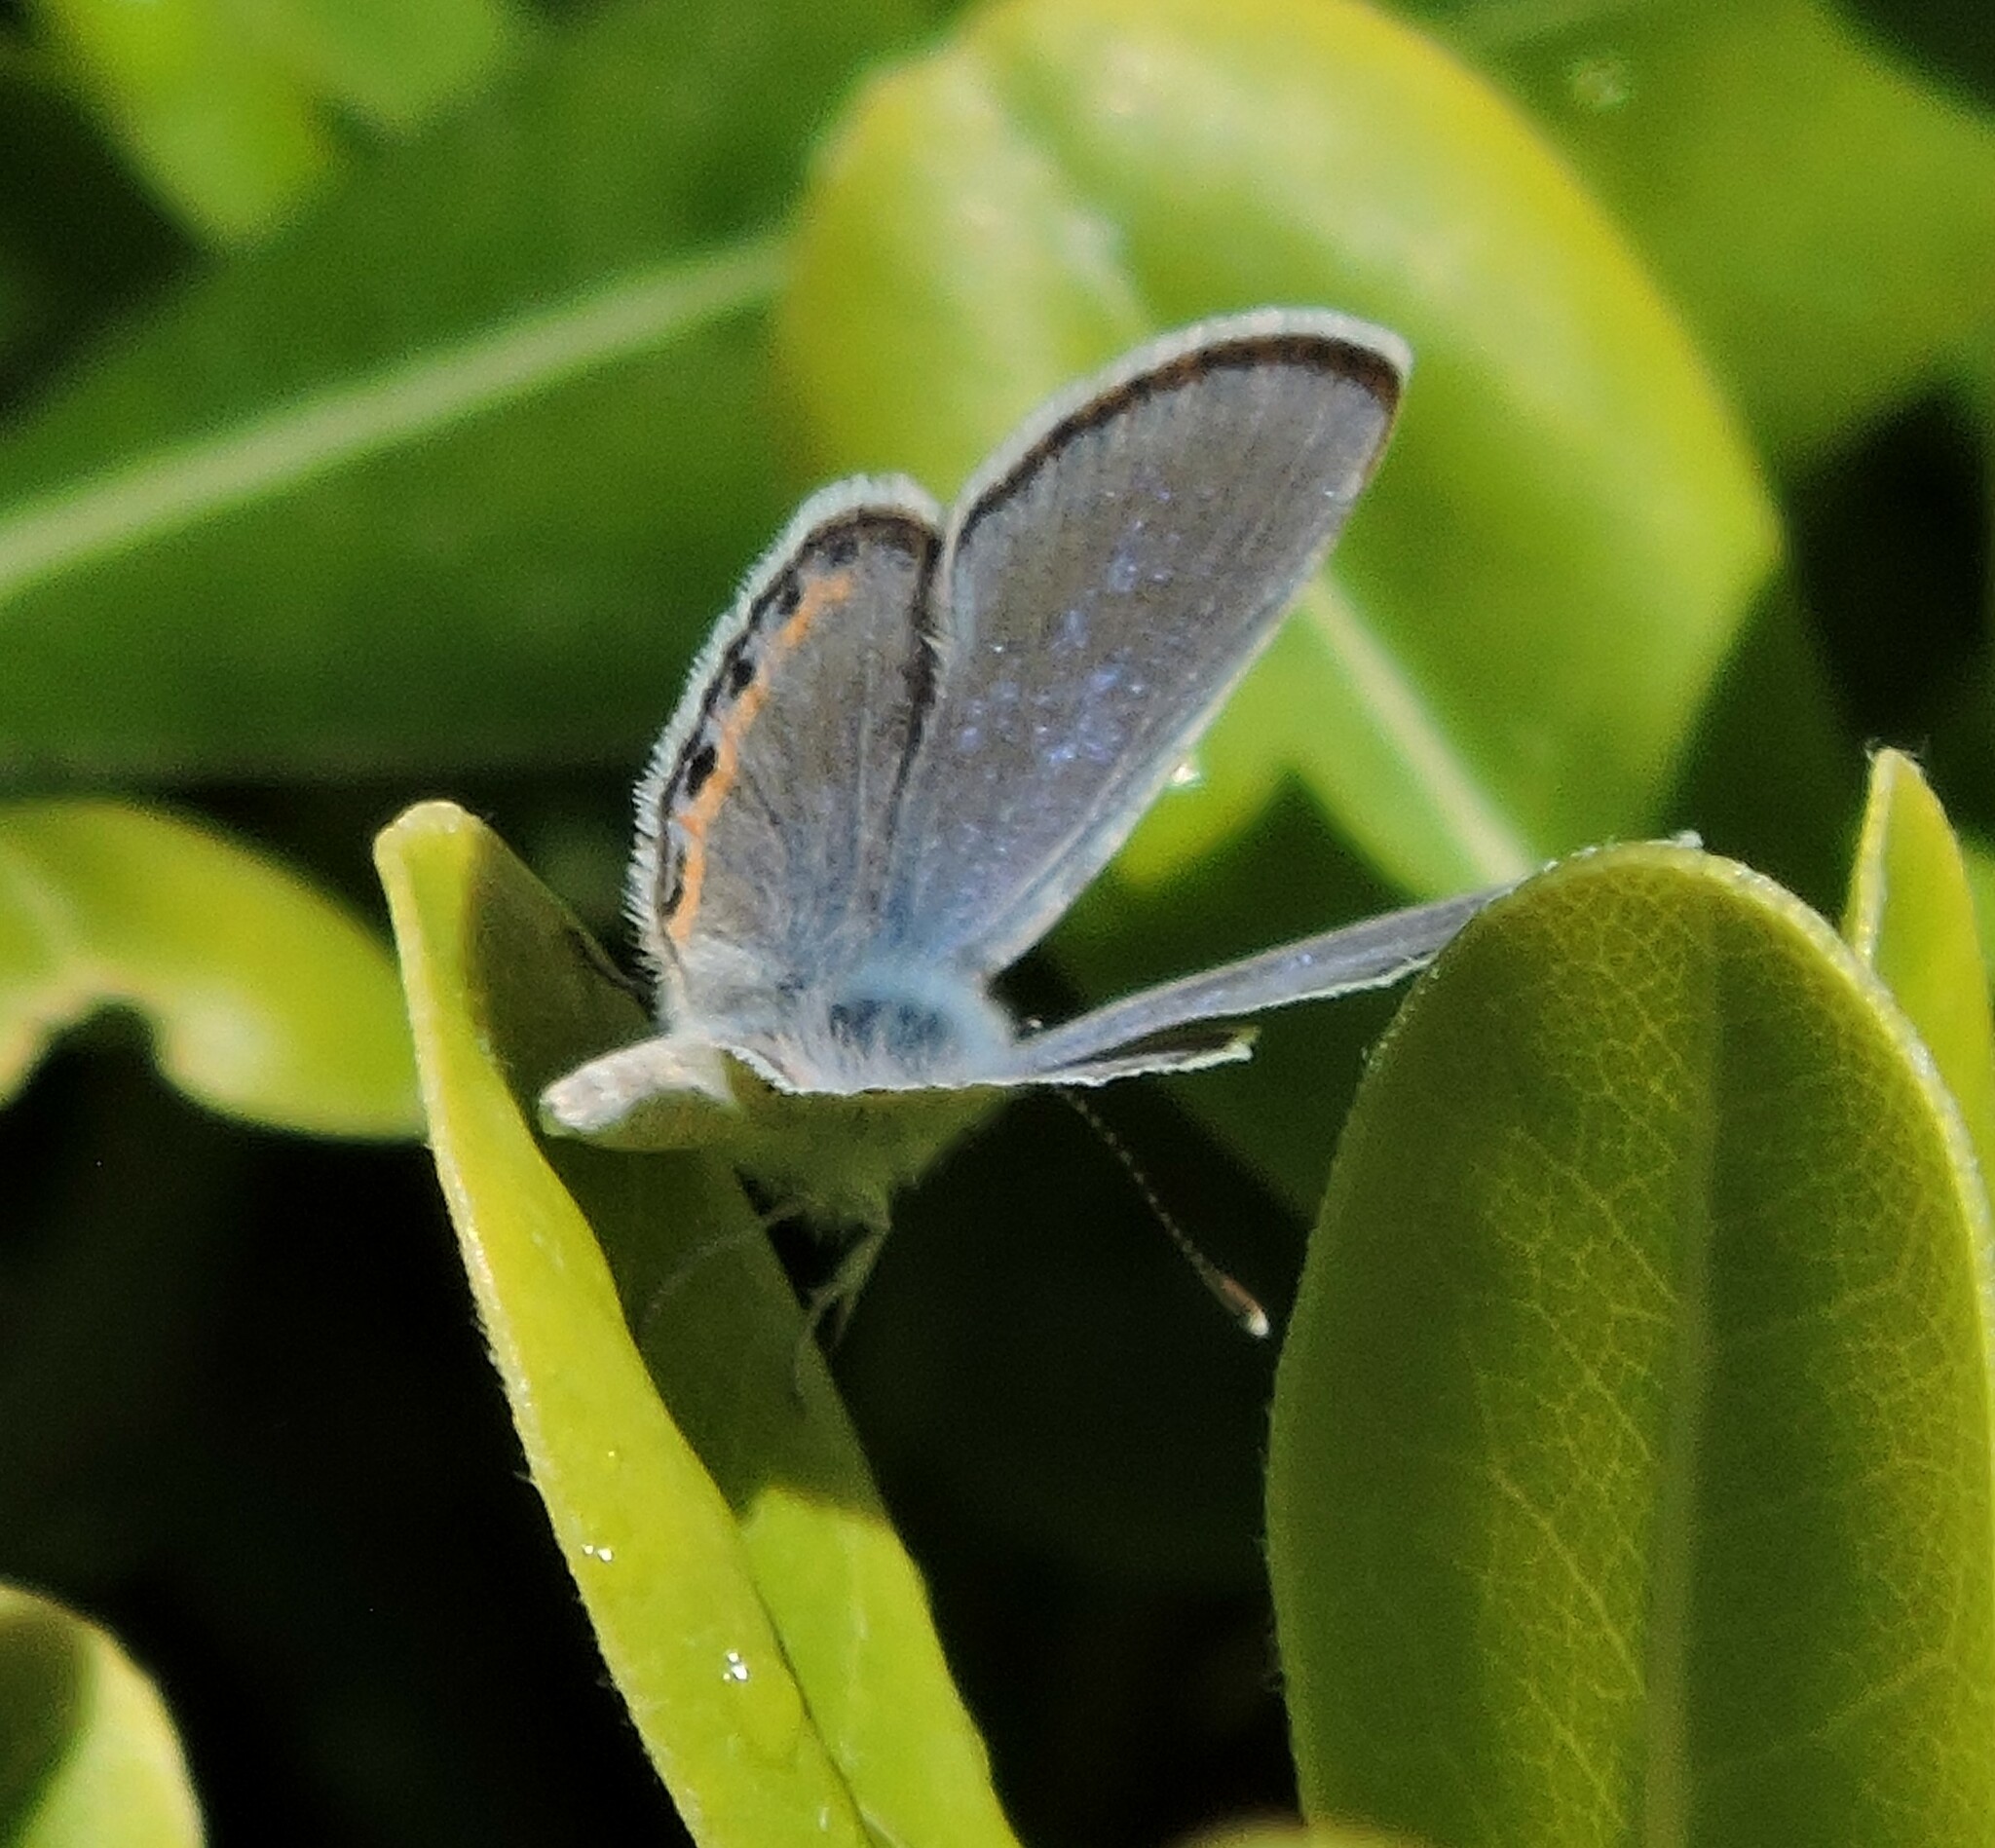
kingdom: Animalia
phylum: Arthropoda
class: Insecta
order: Lepidoptera
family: Lycaenidae
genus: Icaricia
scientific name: Icaricia acmon
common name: Acmon blue
